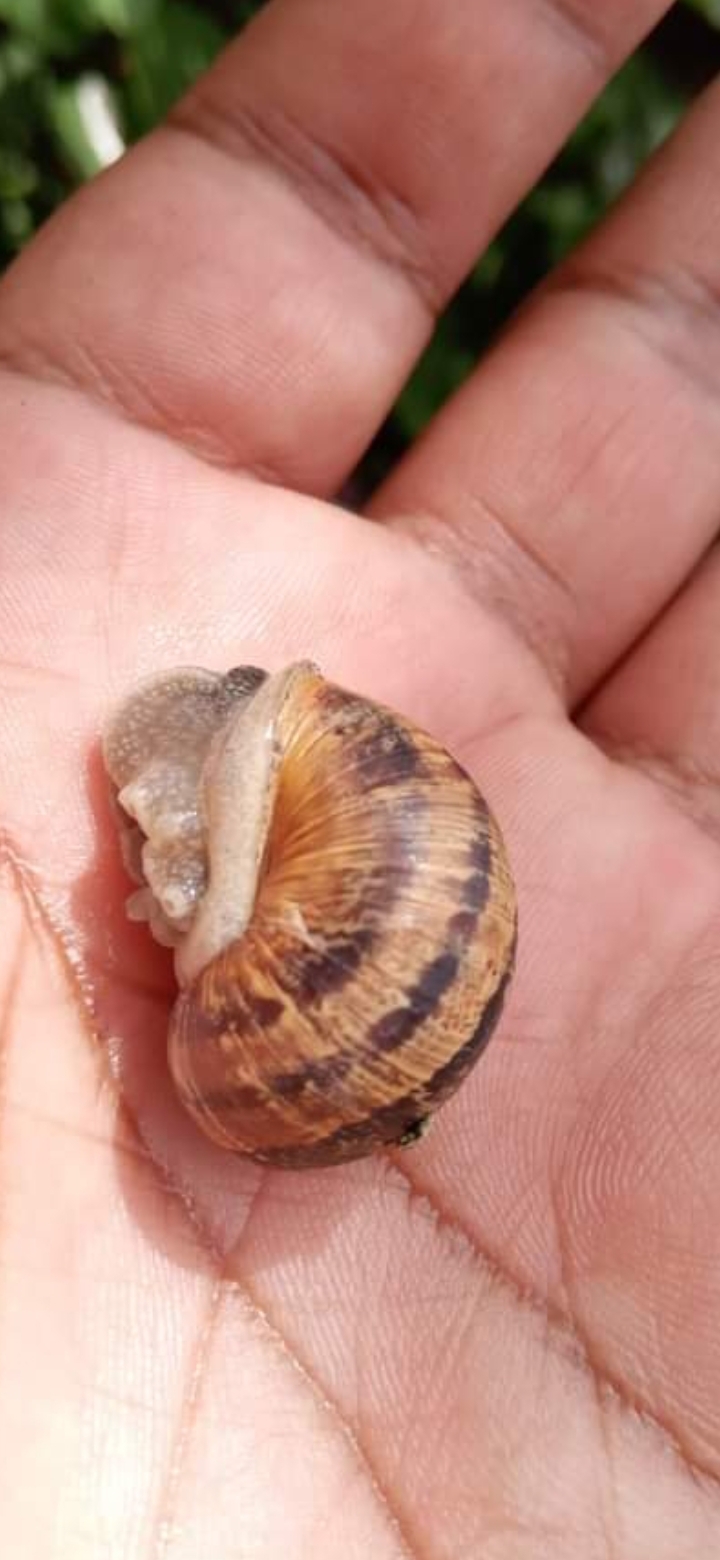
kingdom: Animalia
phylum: Mollusca
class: Gastropoda
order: Stylommatophora
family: Helicidae
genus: Cornu
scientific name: Cornu aspersum
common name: Brown garden snail
